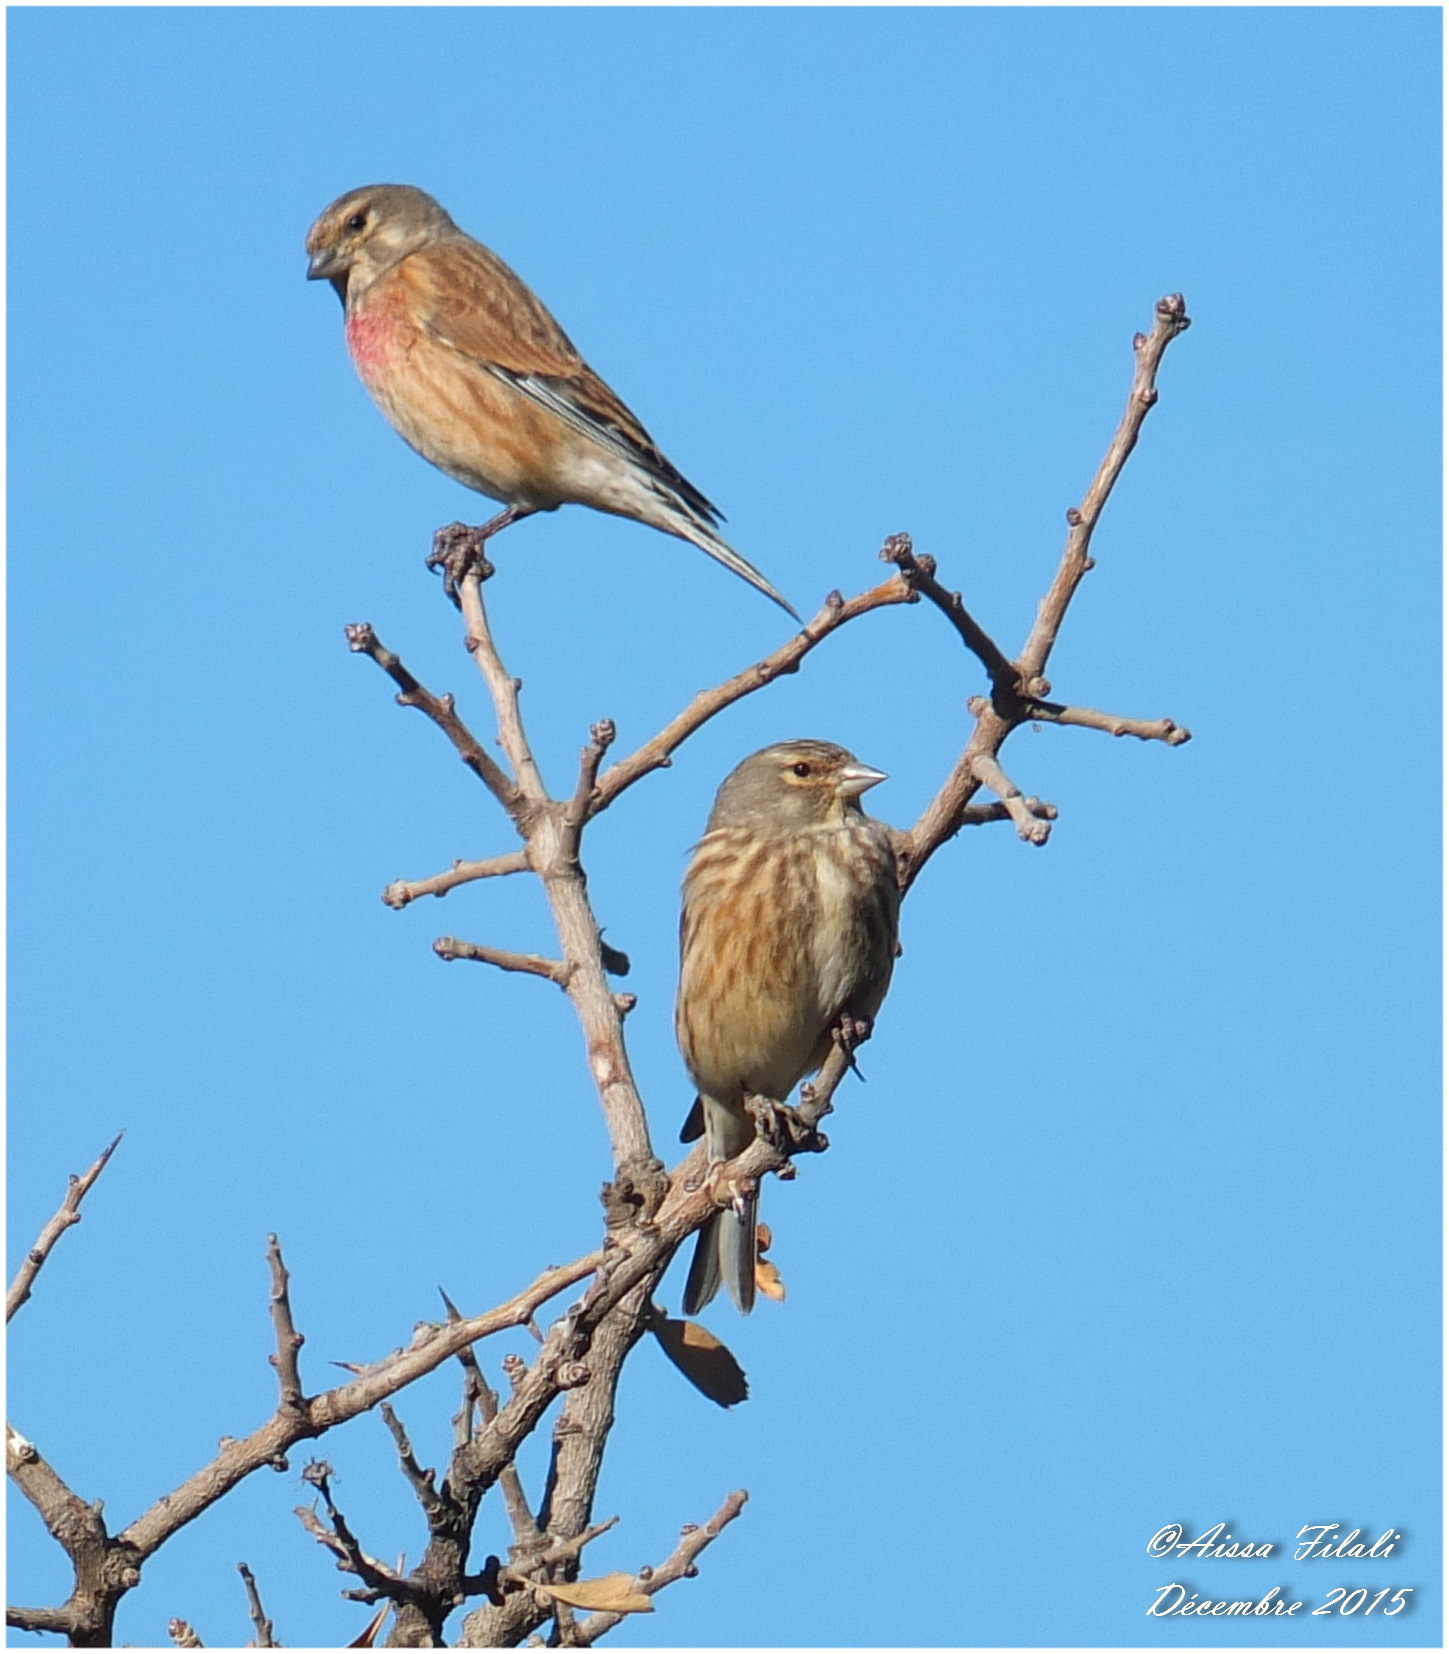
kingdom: Animalia
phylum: Chordata
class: Aves
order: Passeriformes
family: Fringillidae
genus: Linaria
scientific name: Linaria cannabina
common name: Common linnet
